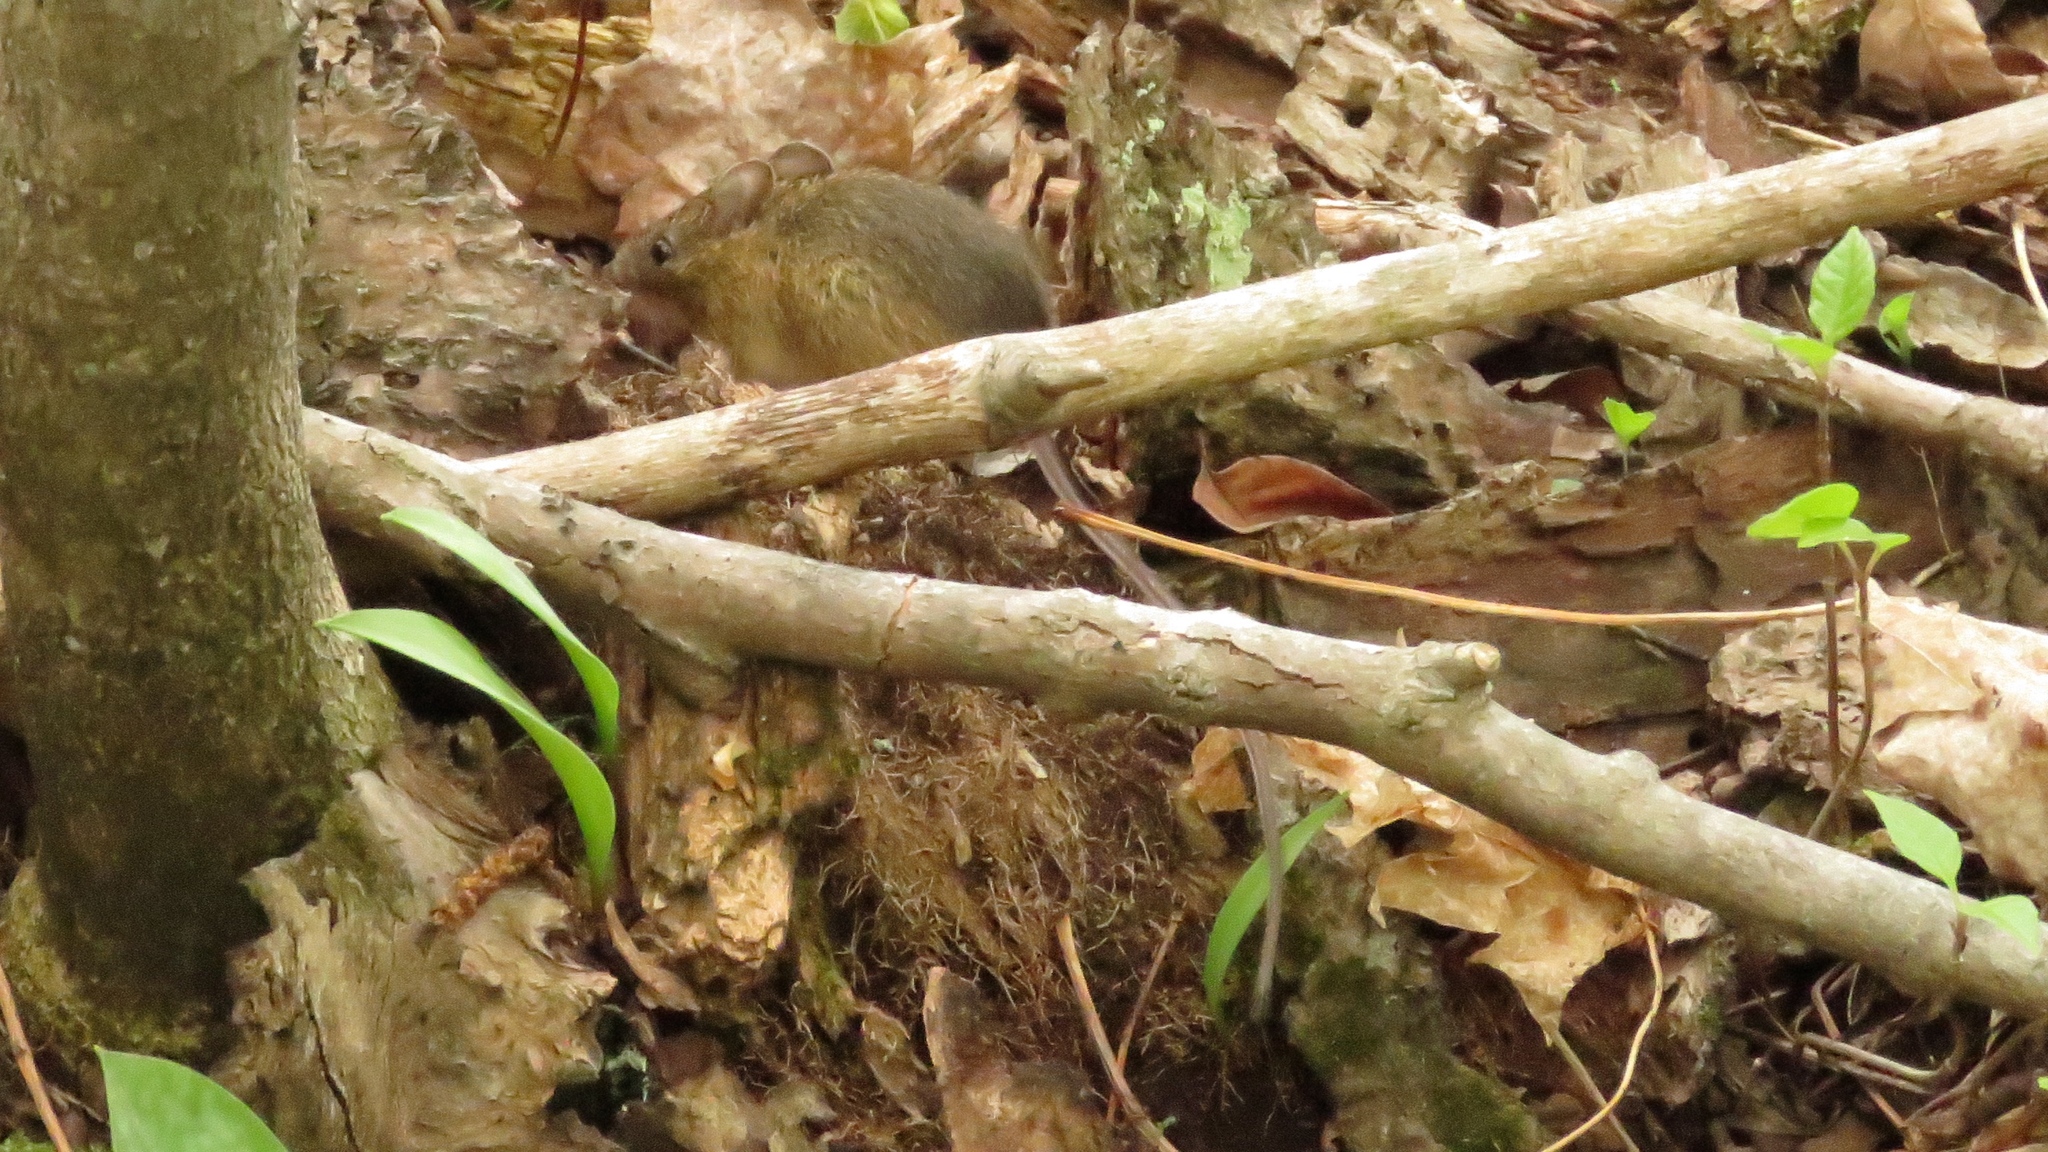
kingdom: Animalia
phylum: Chordata
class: Mammalia
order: Rodentia
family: Dipodidae
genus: Zapus
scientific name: Zapus hudsonius
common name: Meadow jumping mouse
